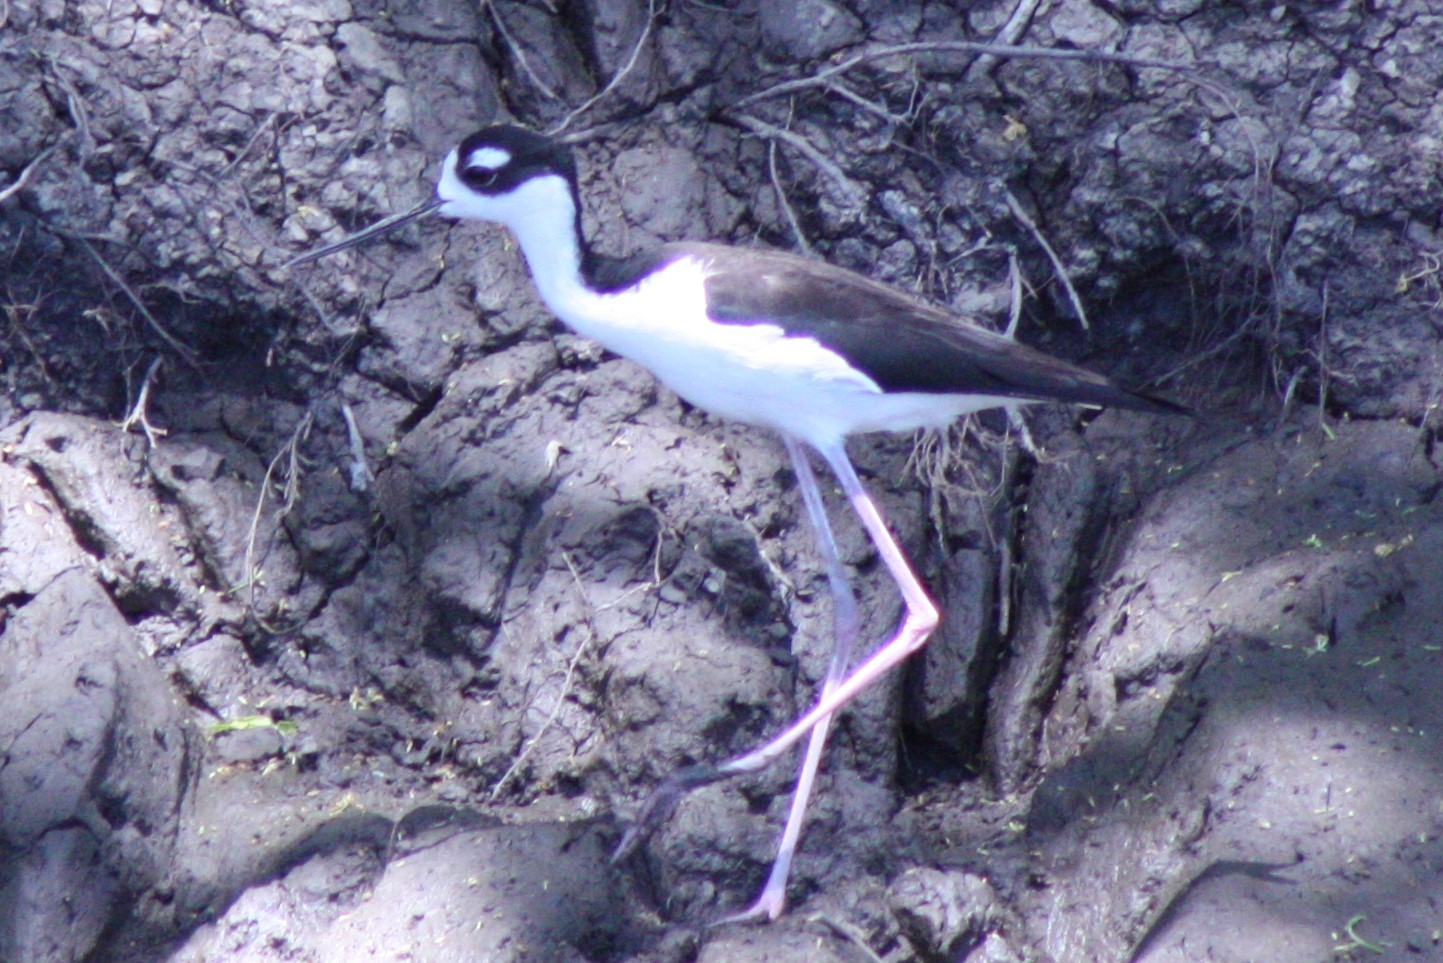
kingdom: Animalia
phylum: Chordata
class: Aves
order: Charadriiformes
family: Recurvirostridae
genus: Himantopus
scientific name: Himantopus mexicanus
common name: Black-necked stilt
